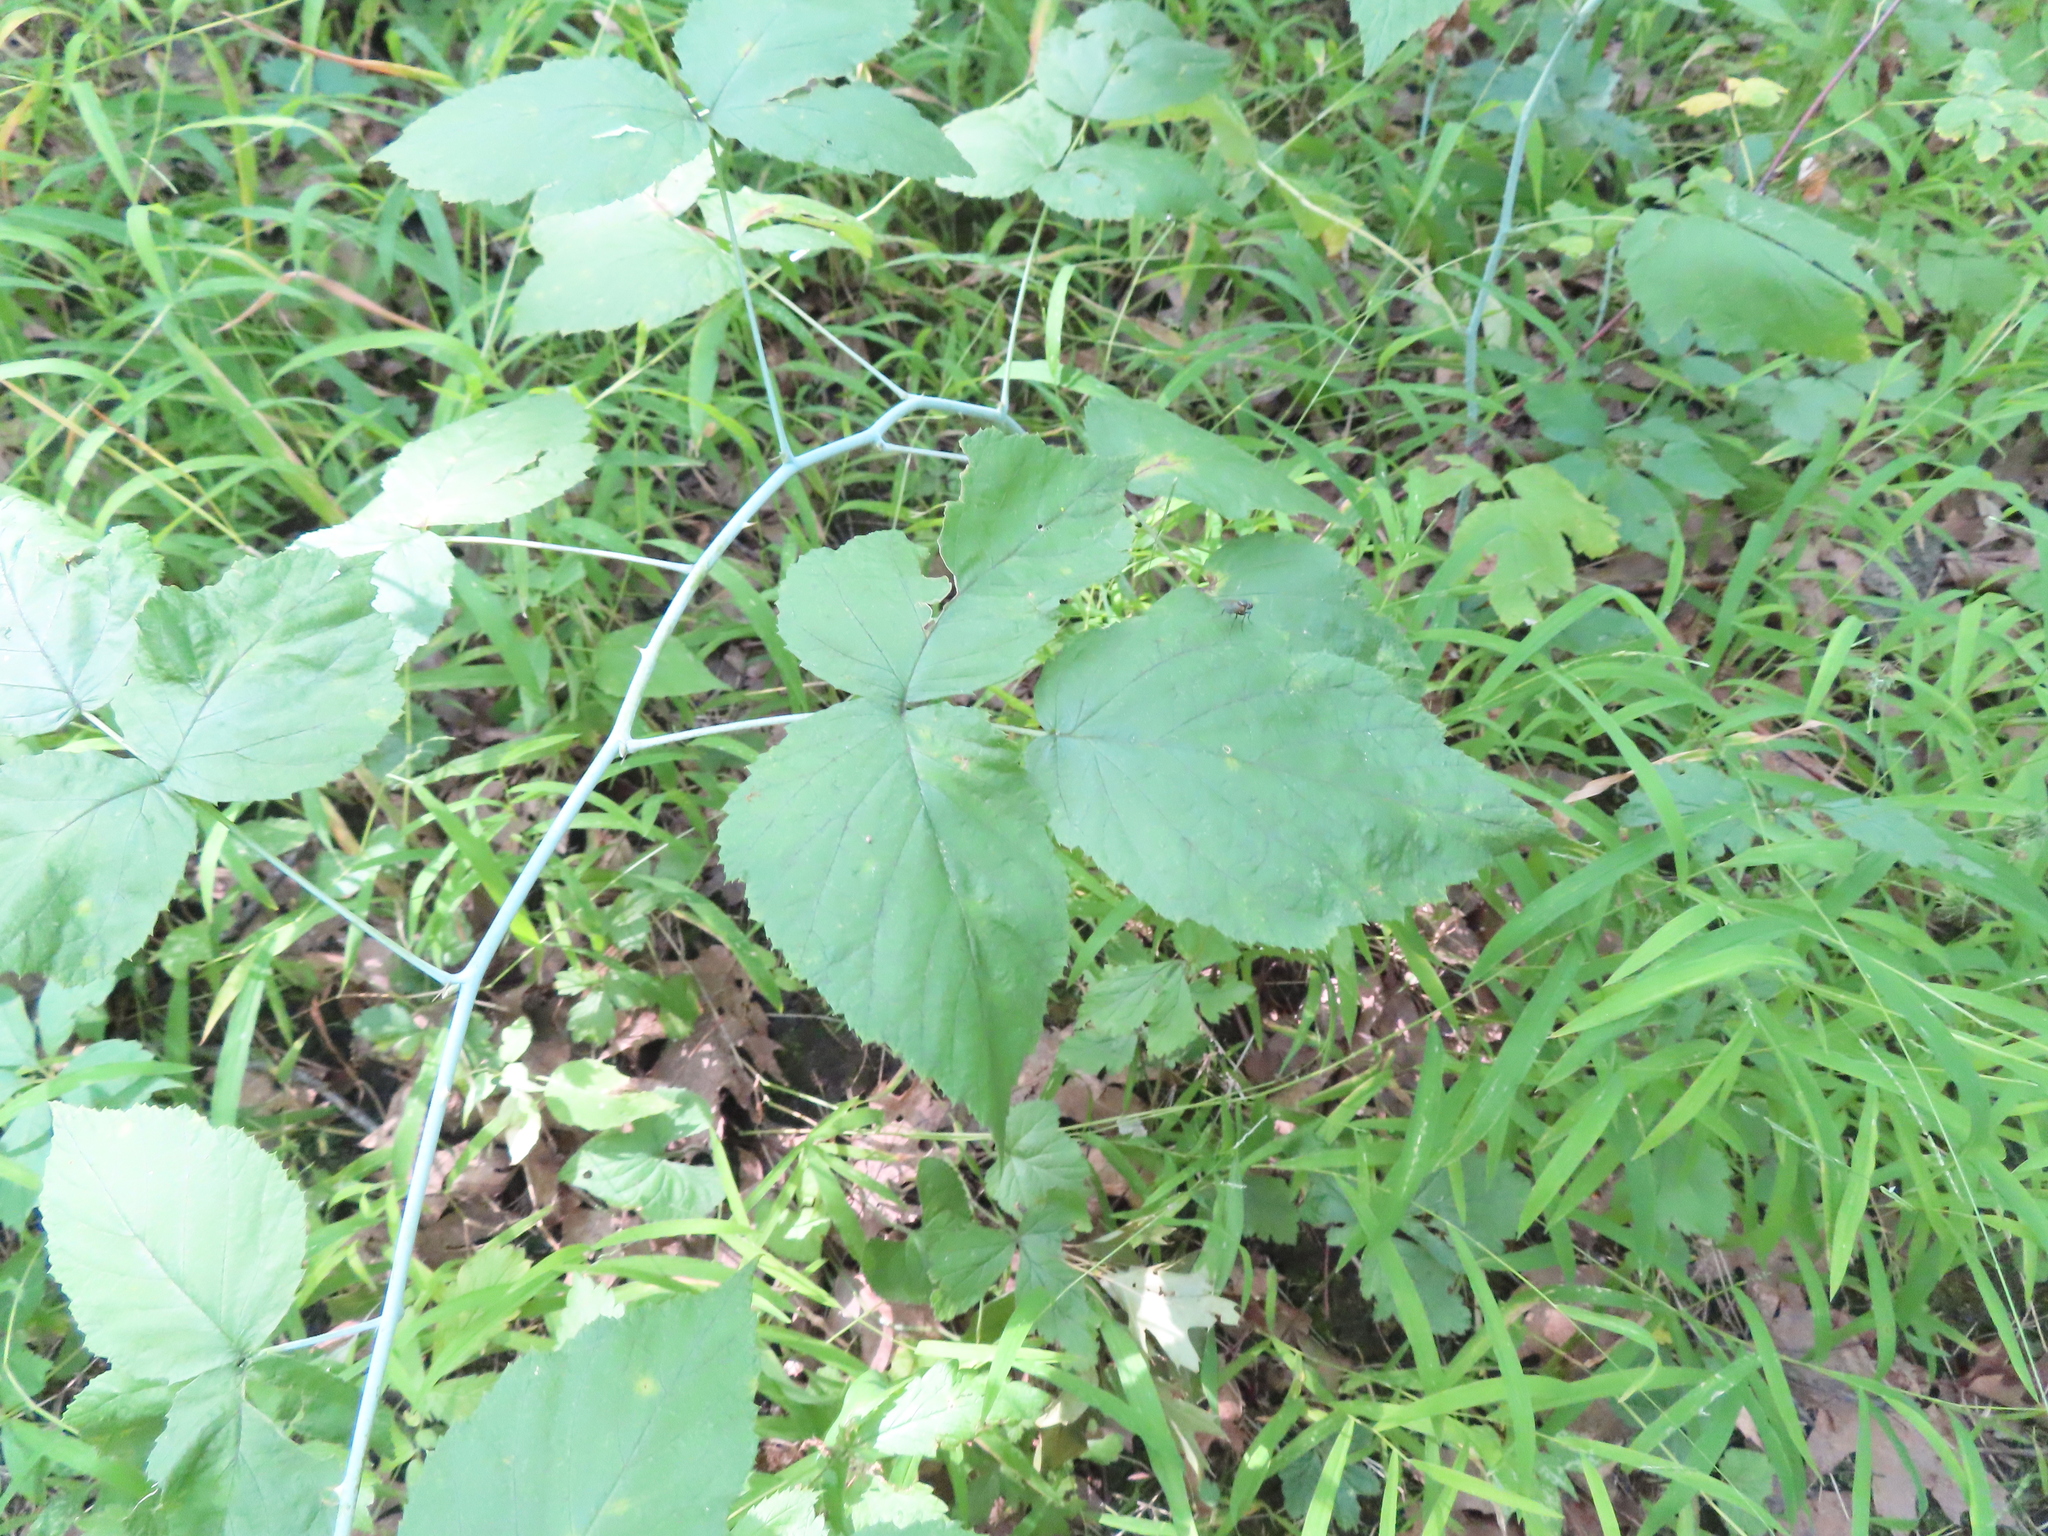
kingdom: Plantae
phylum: Tracheophyta
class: Magnoliopsida
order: Rosales
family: Rosaceae
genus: Rubus
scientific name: Rubus occidentalis
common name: Black raspberry
